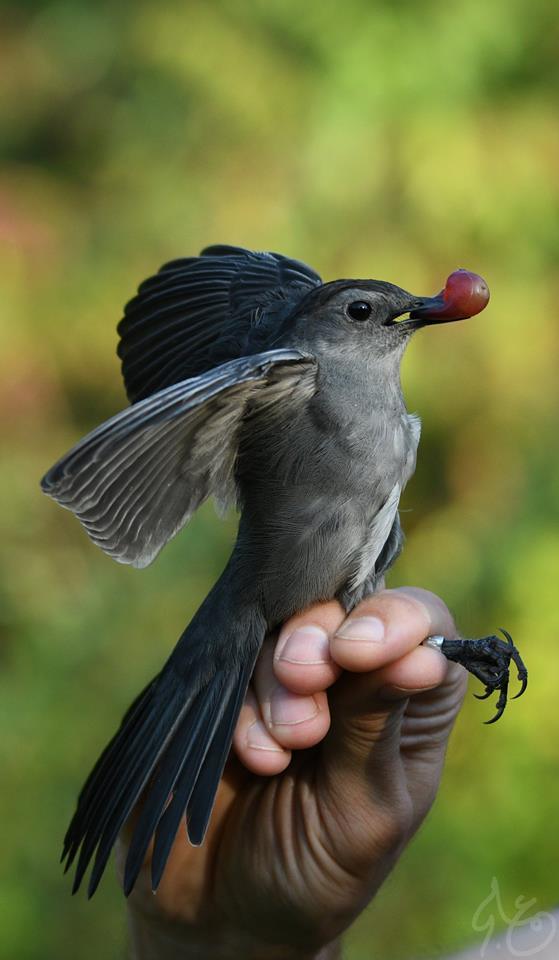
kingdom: Animalia
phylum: Chordata
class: Aves
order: Passeriformes
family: Mimidae
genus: Dumetella
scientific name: Dumetella carolinensis
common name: Gray catbird
